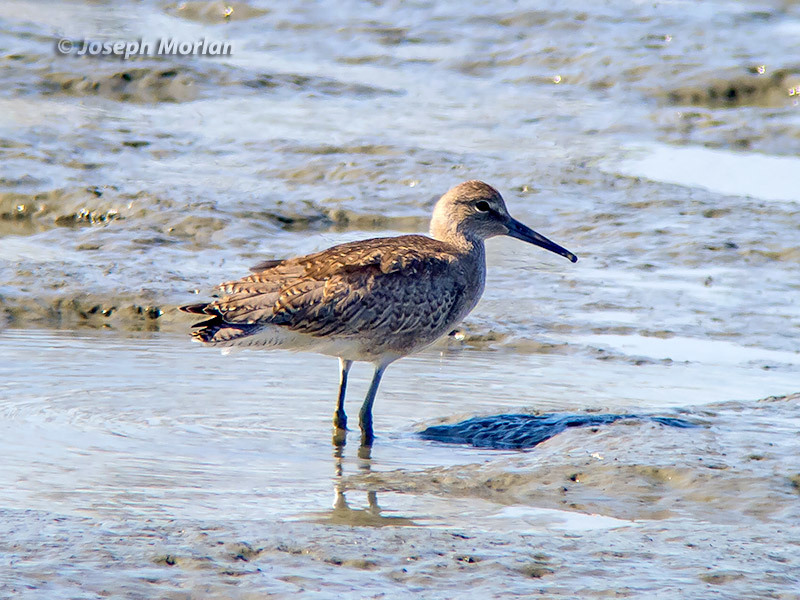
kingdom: Animalia
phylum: Chordata
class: Aves
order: Charadriiformes
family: Scolopacidae
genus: Tringa
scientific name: Tringa semipalmata
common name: Willet
